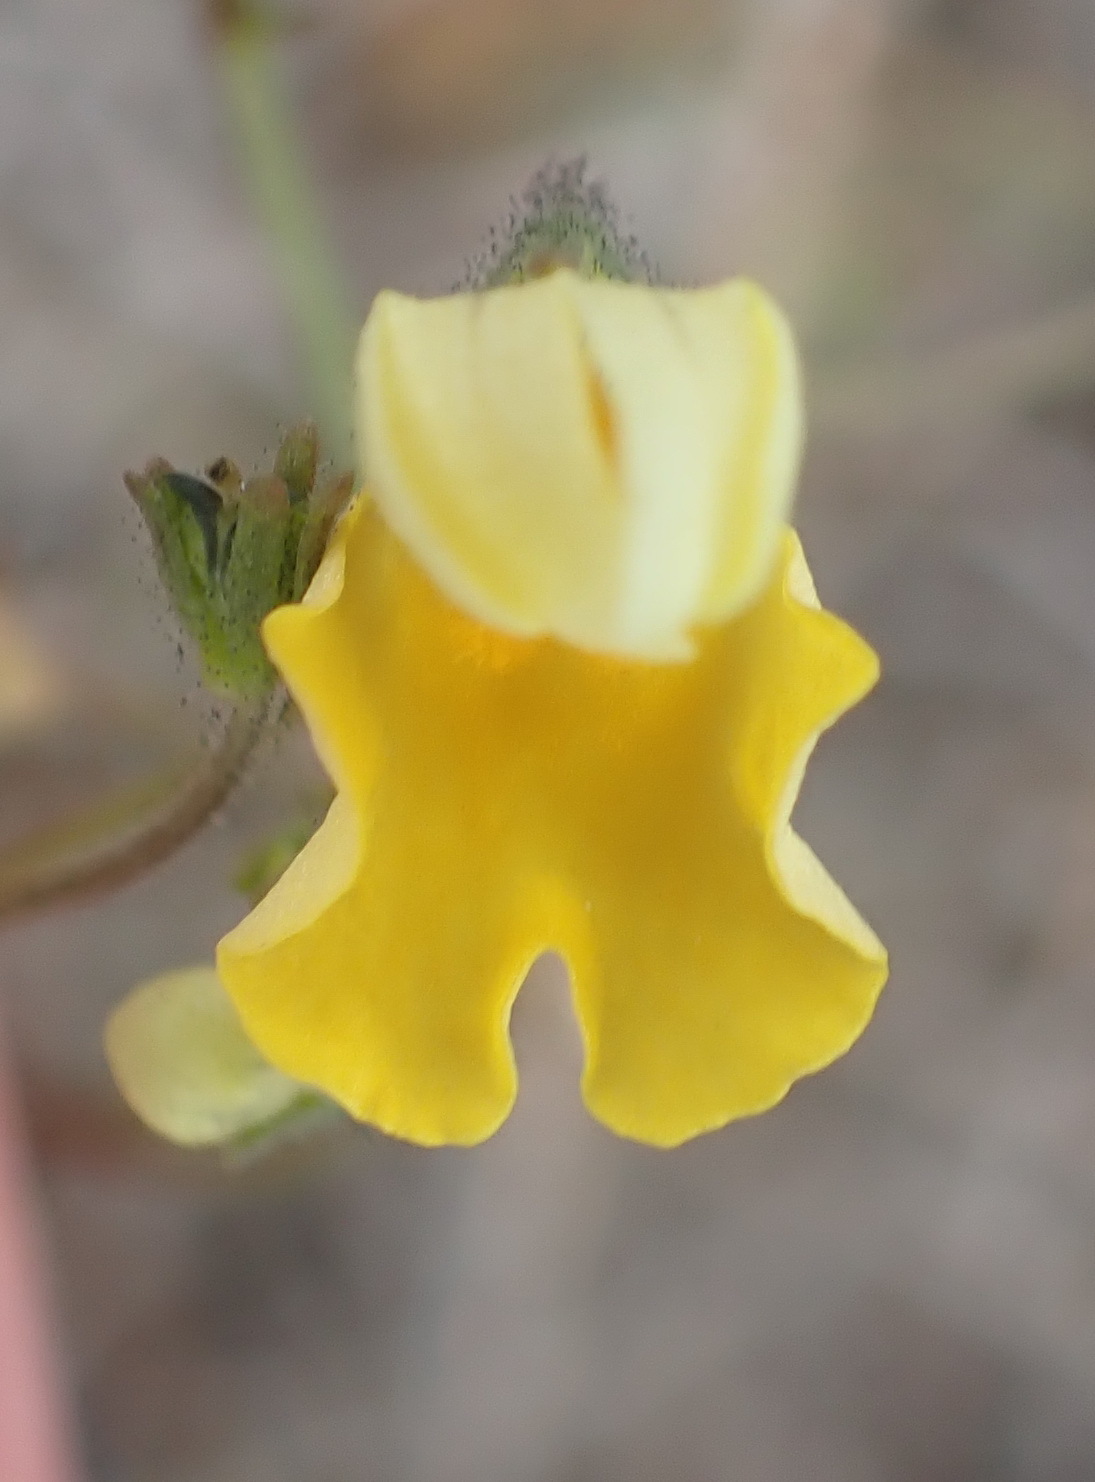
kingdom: Plantae
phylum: Tracheophyta
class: Magnoliopsida
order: Lamiales
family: Scrophulariaceae
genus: Nemesia
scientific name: Nemesia affinis
